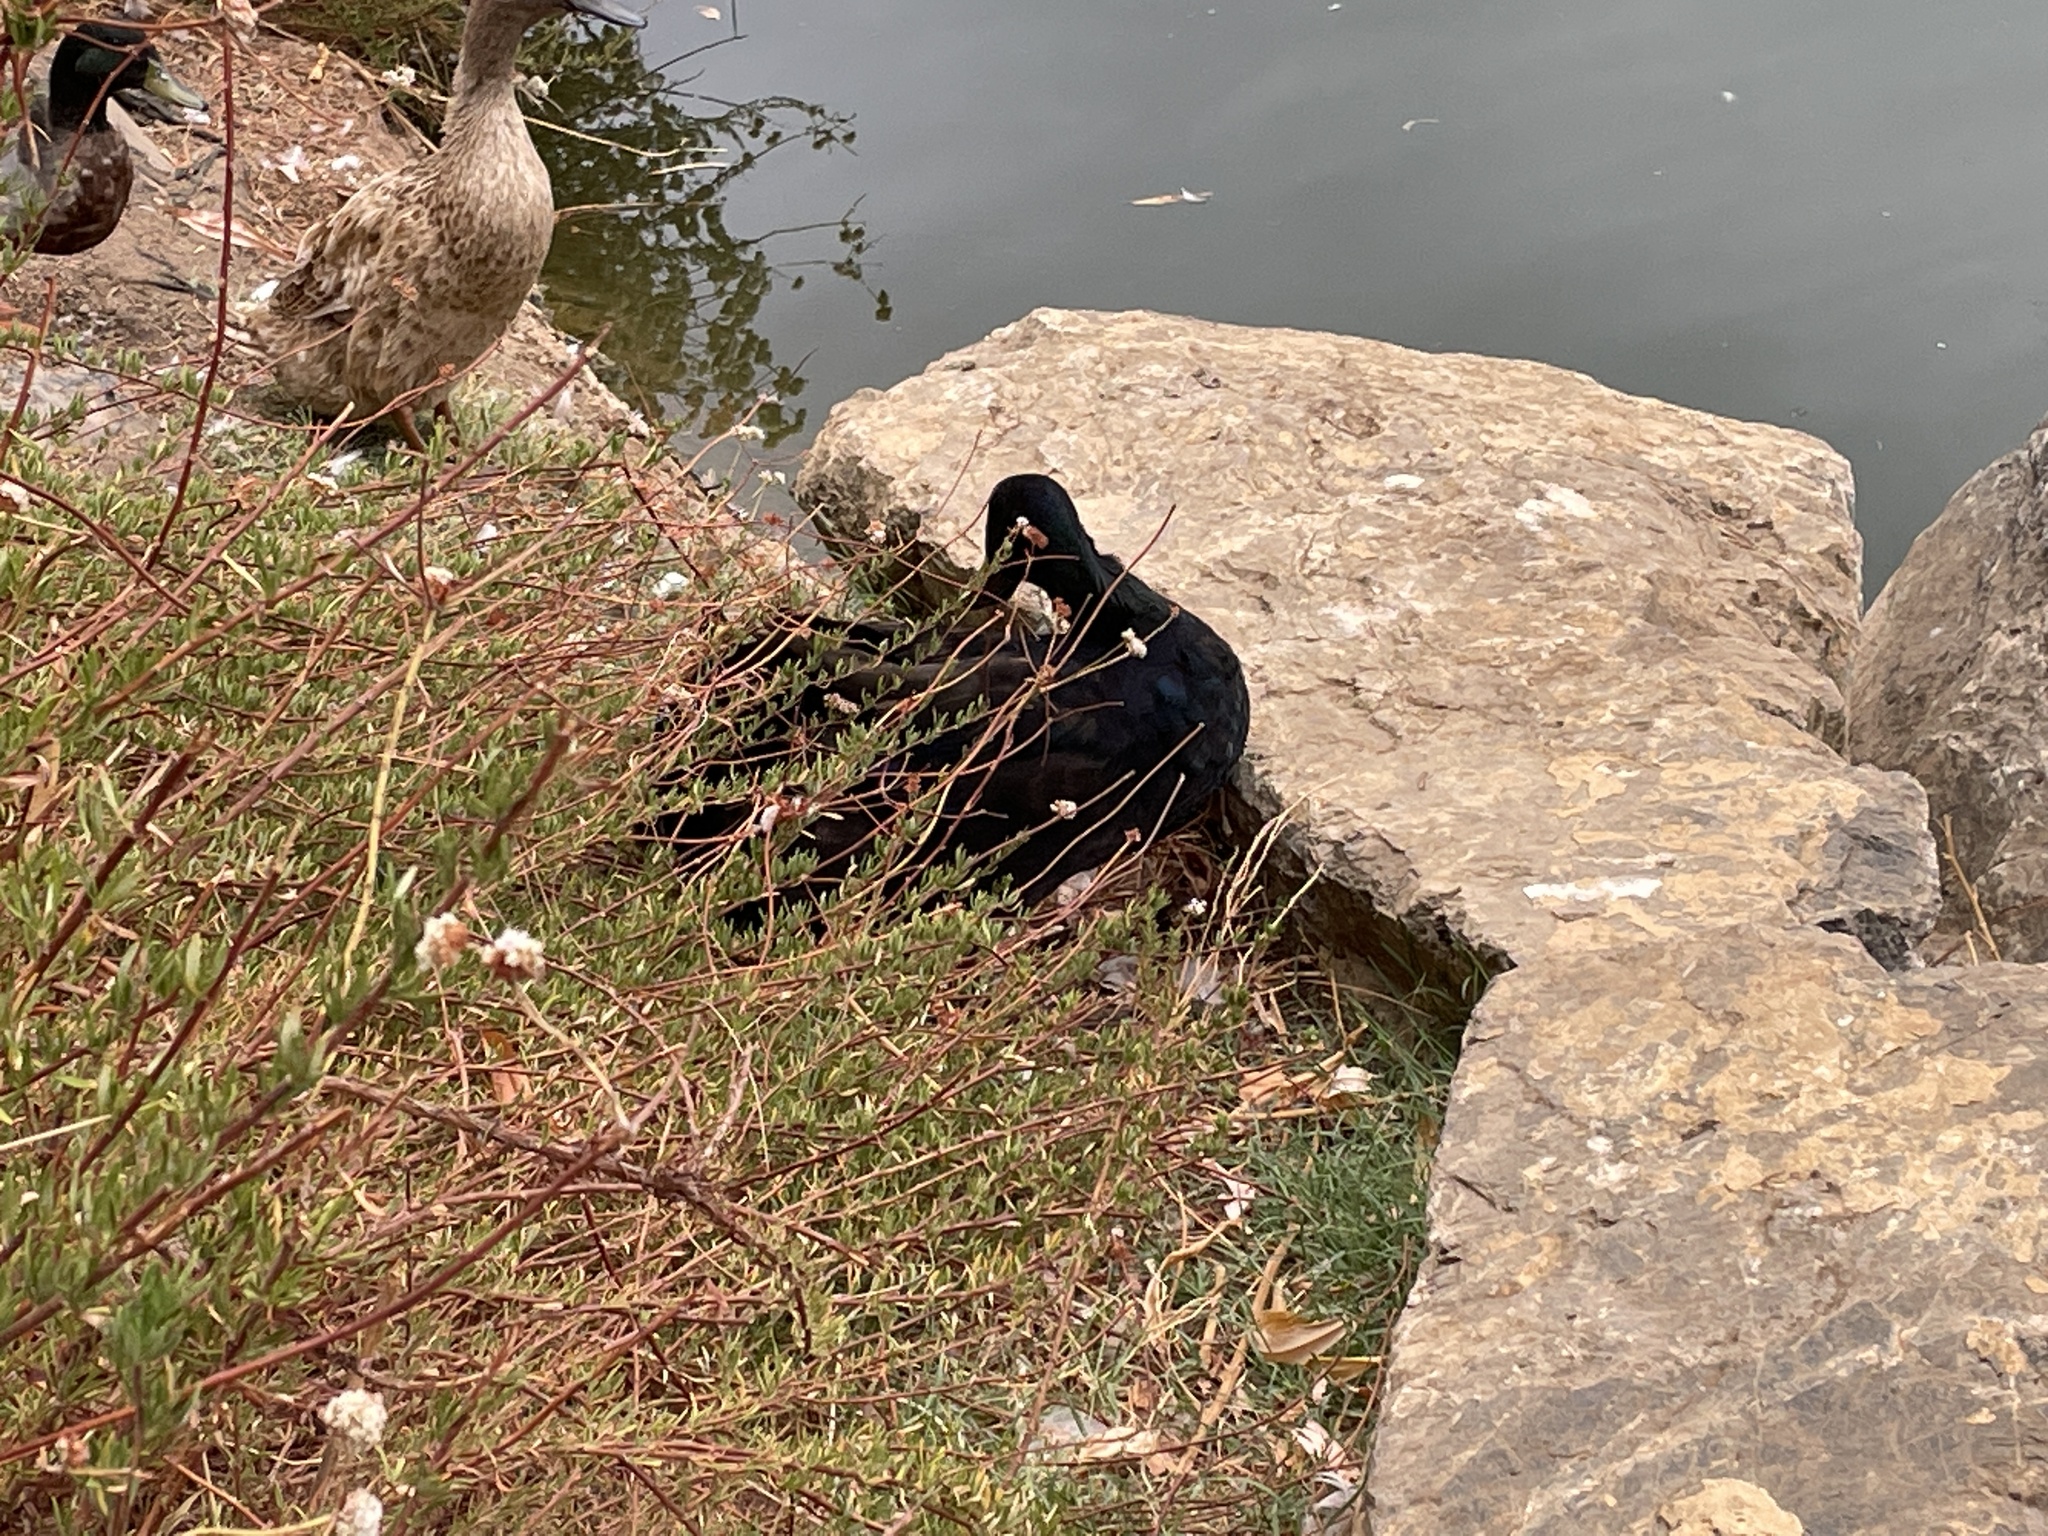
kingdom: Animalia
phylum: Chordata
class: Aves
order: Anseriformes
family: Anatidae
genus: Anas
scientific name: Anas platyrhynchos
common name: Mallard
